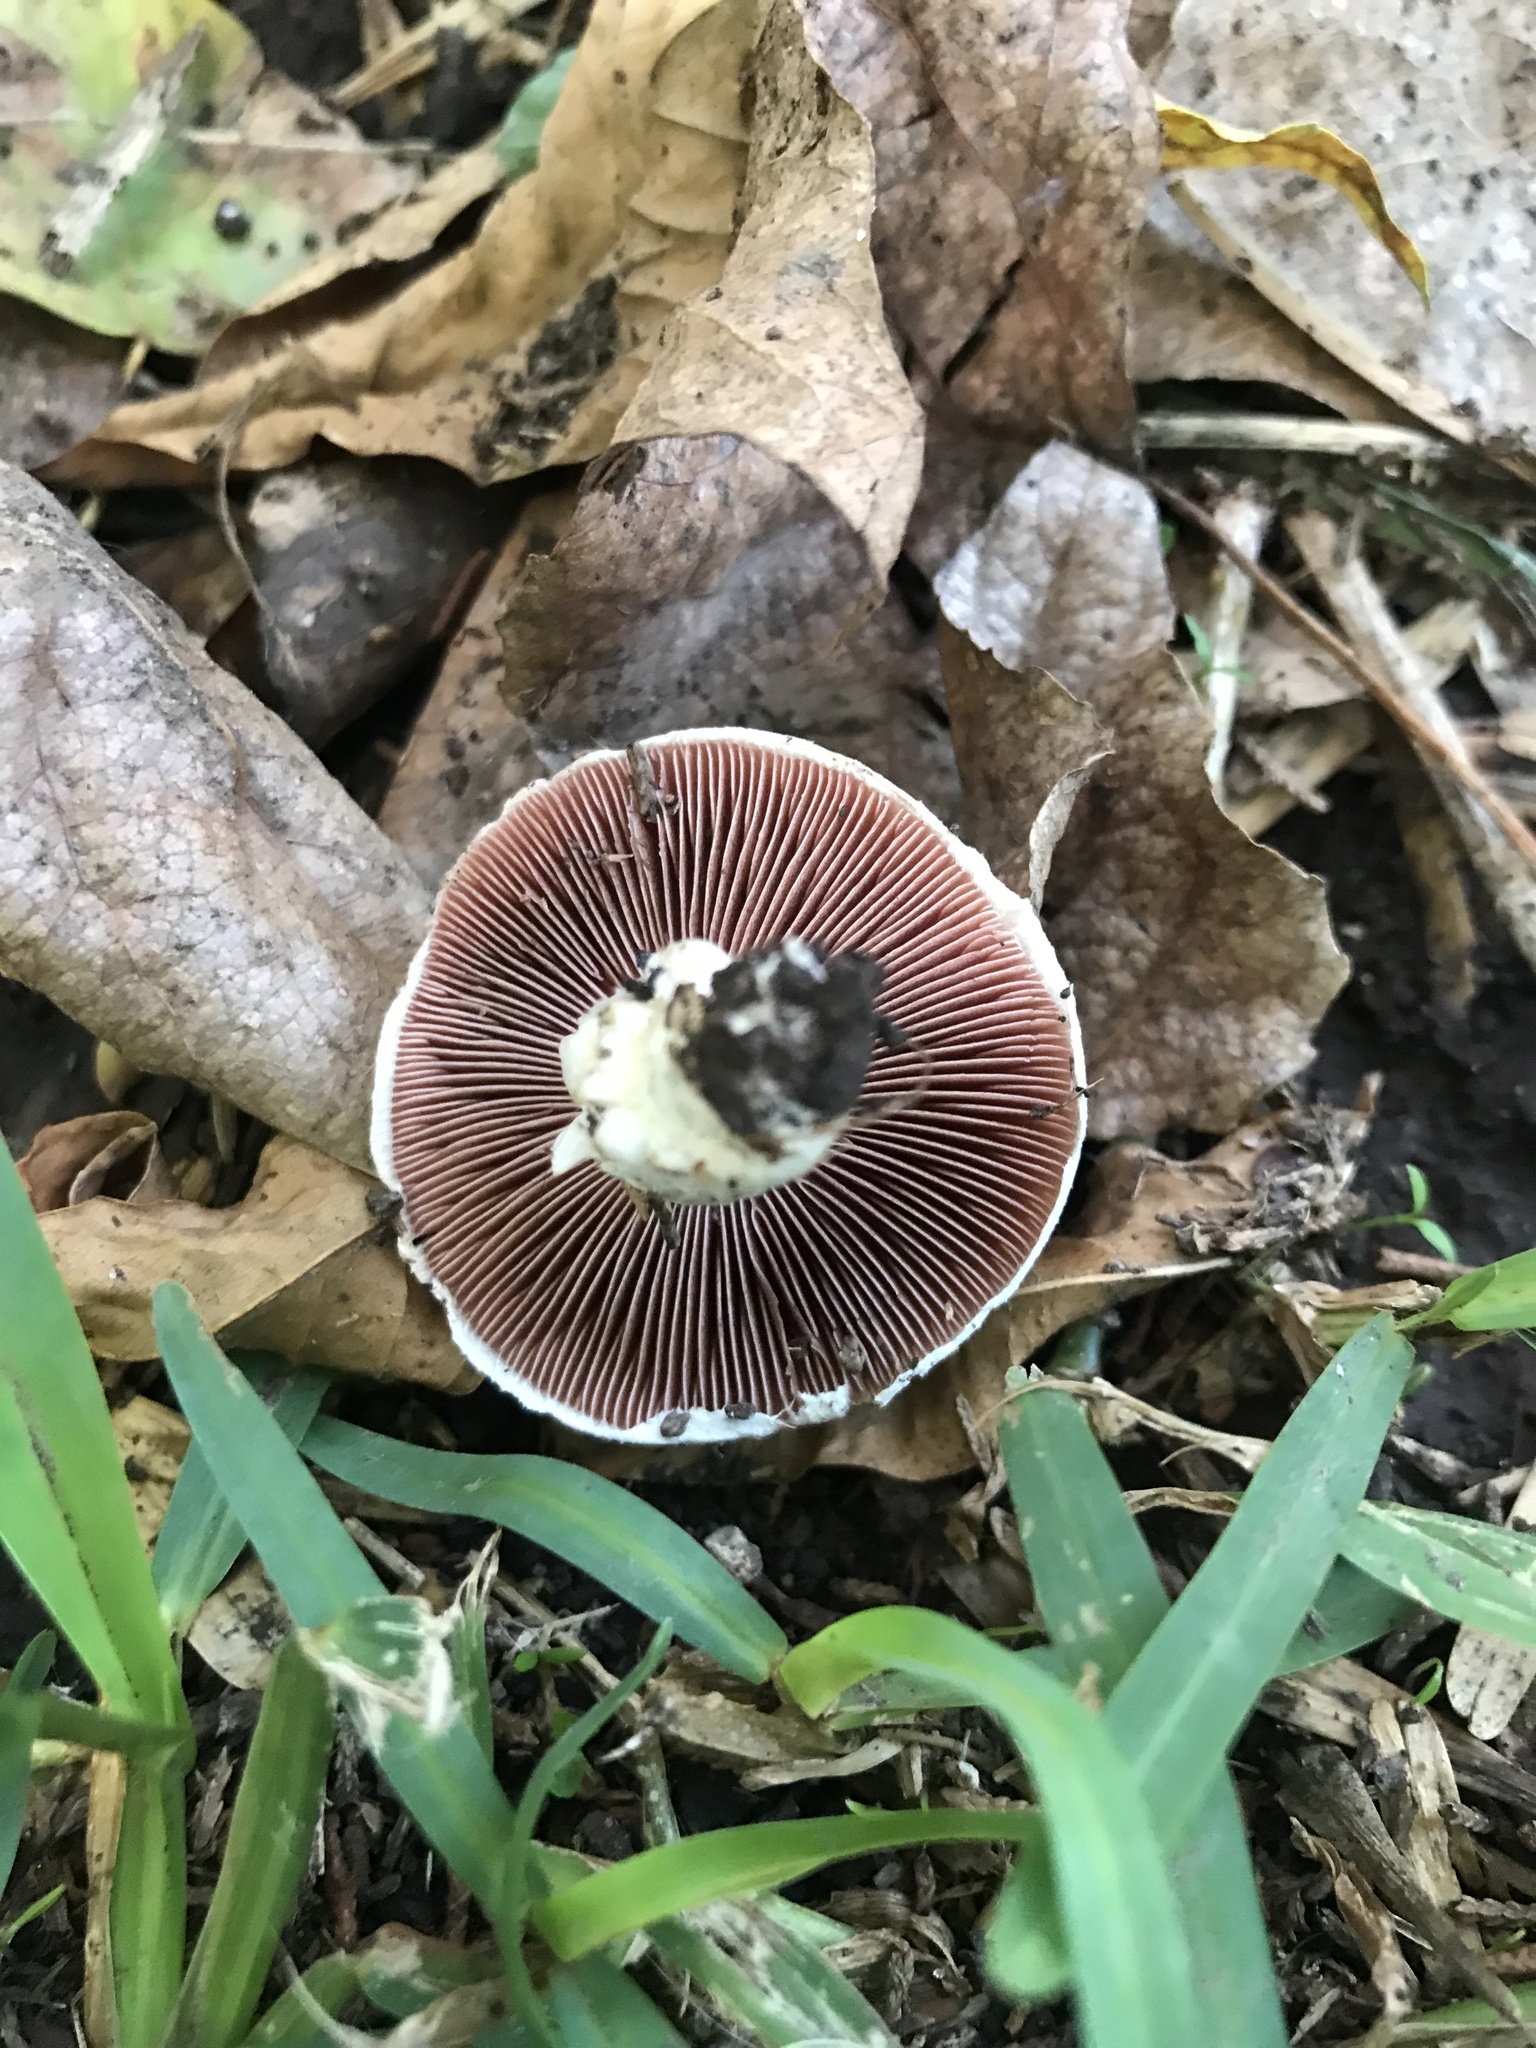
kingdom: Fungi
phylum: Basidiomycota
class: Agaricomycetes
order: Agaricales
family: Agaricaceae
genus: Agaricus
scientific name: Agaricus campestris
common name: Field mushroom
